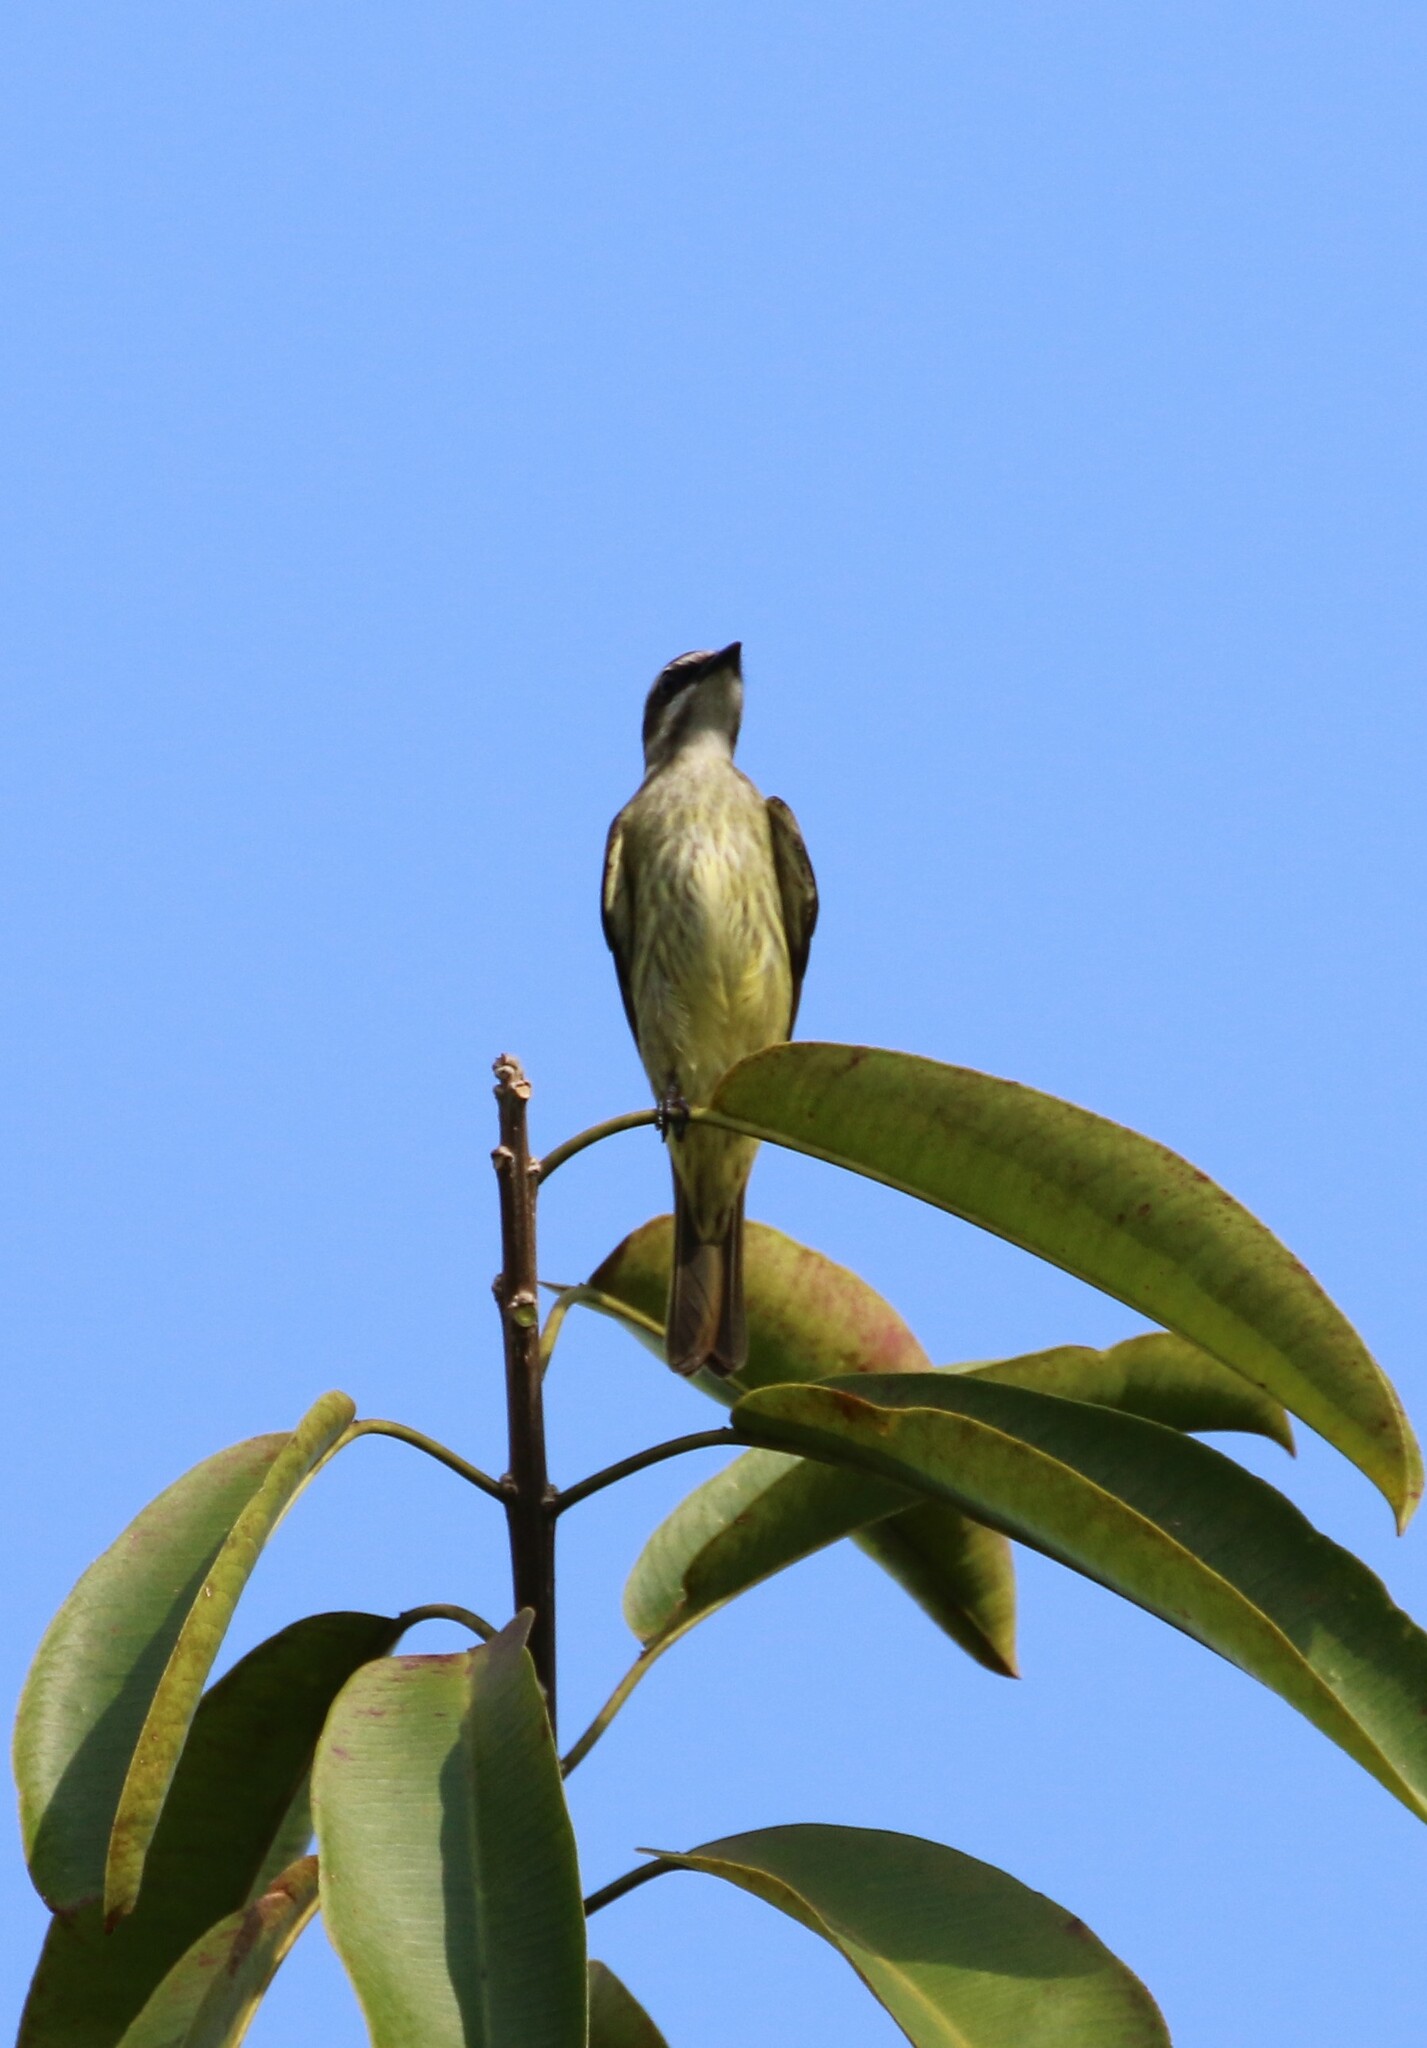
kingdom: Animalia
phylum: Chordata
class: Aves
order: Passeriformes
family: Tyrannidae
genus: Legatus
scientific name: Legatus leucophaius
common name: Piratic flycatcher
